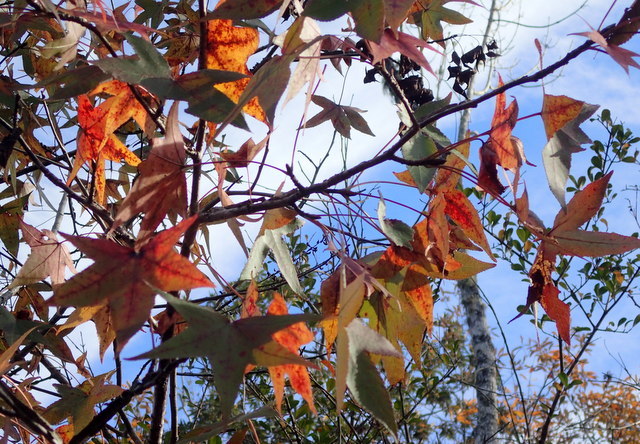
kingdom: Plantae
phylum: Tracheophyta
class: Magnoliopsida
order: Saxifragales
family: Altingiaceae
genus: Liquidambar
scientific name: Liquidambar styraciflua
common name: Sweet gum
